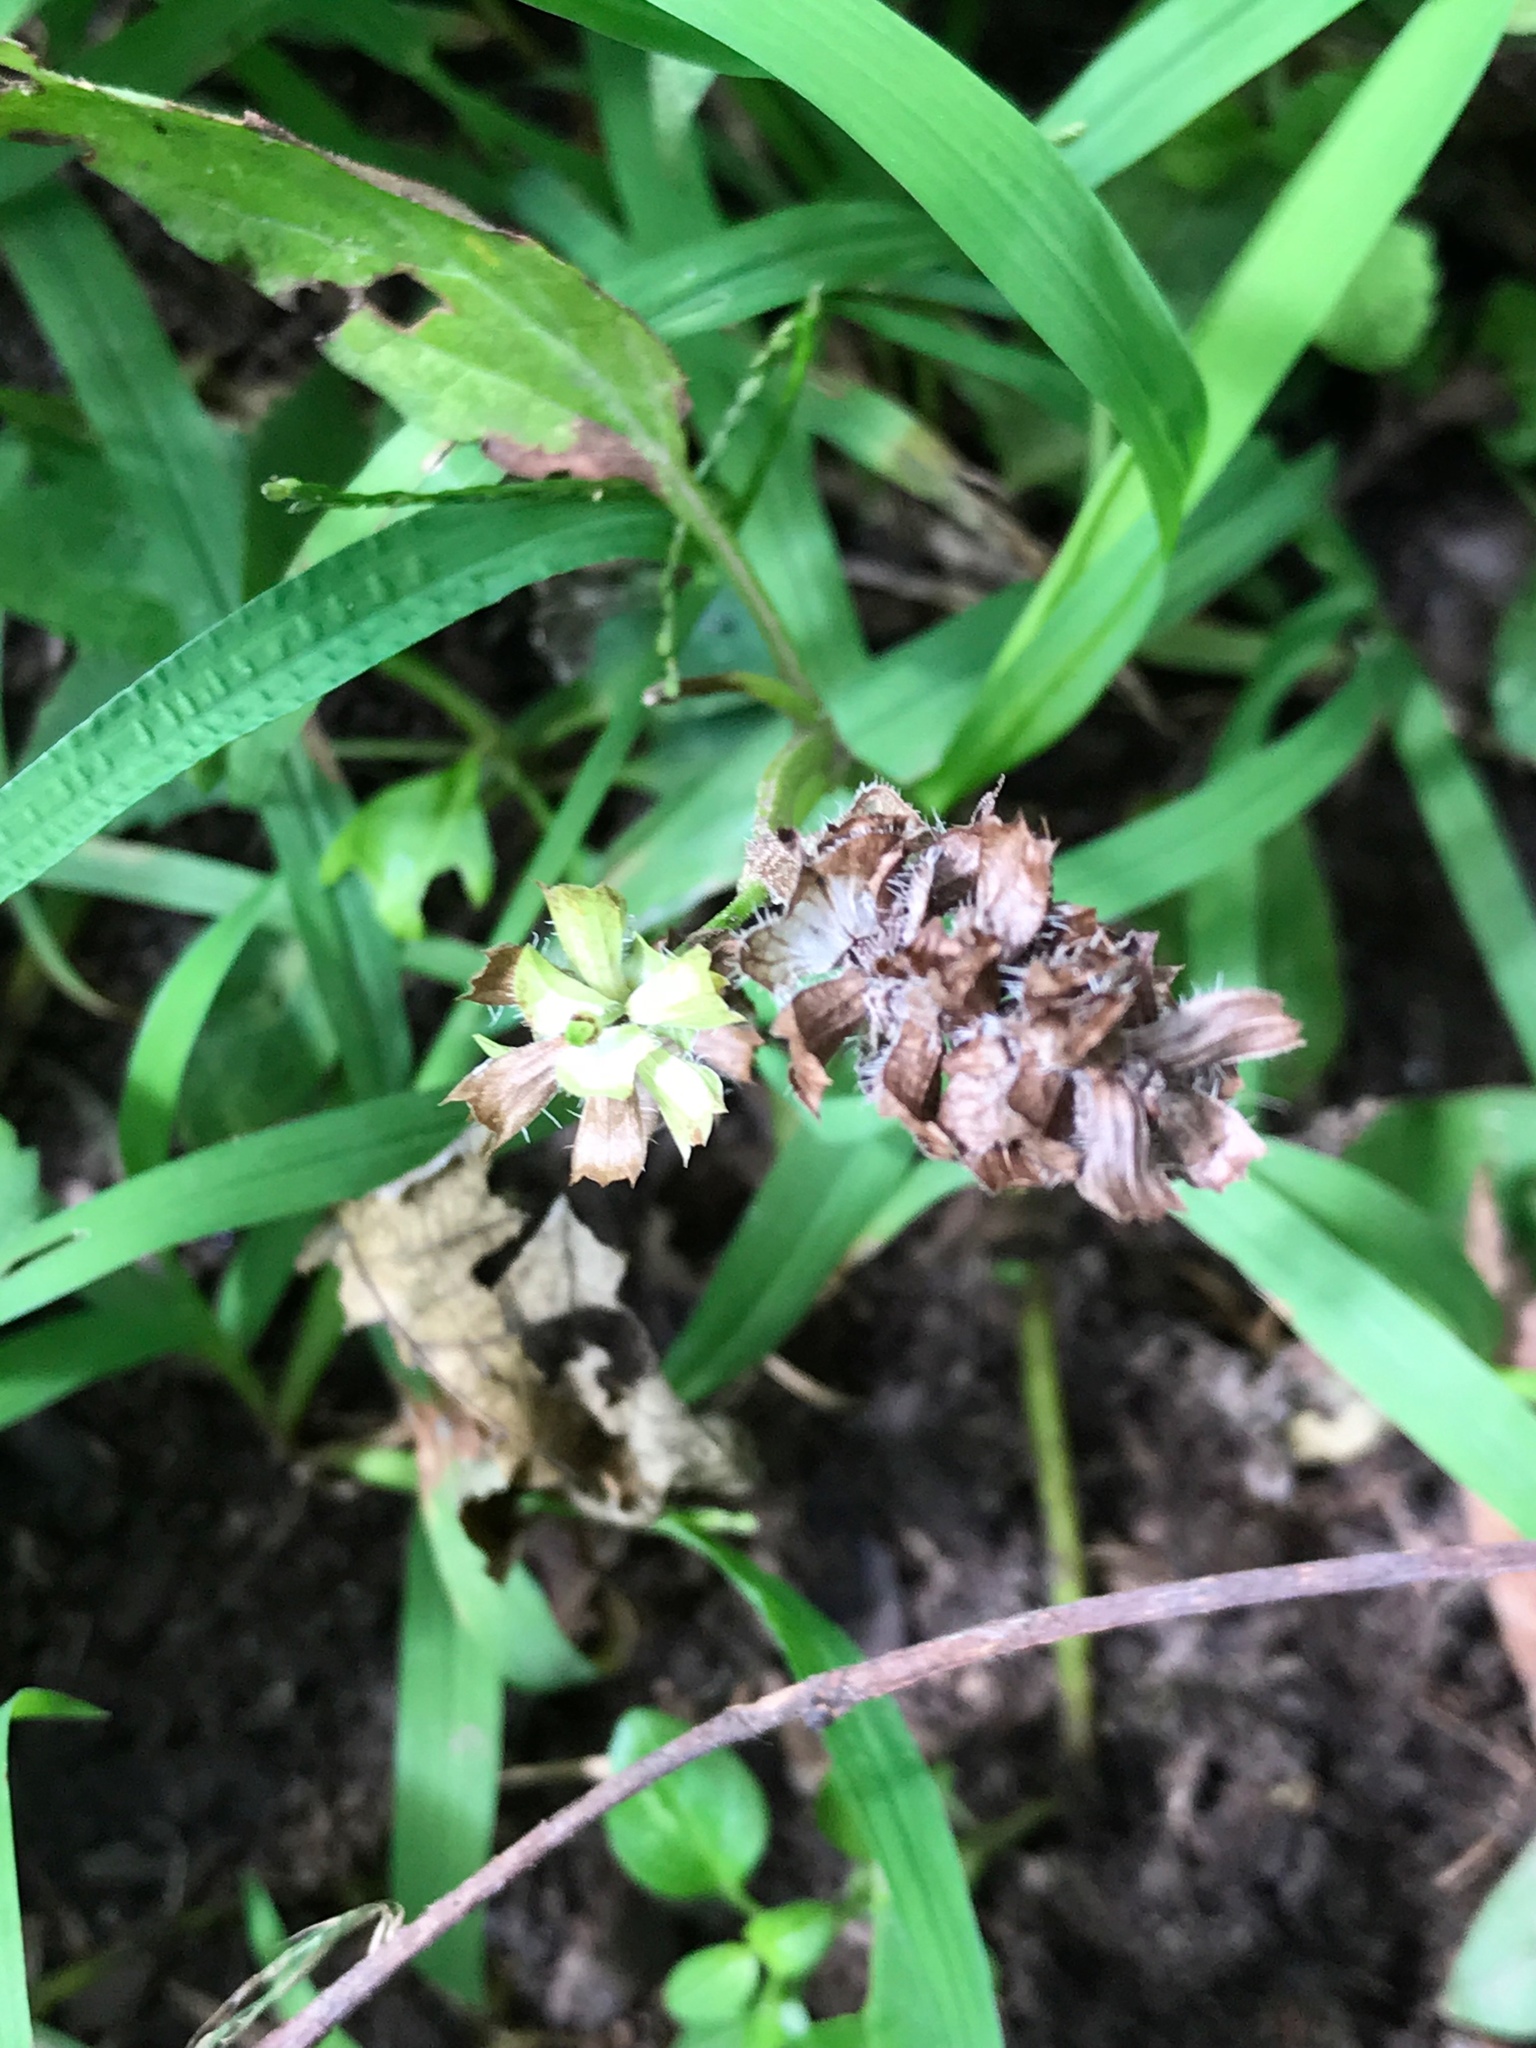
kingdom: Plantae
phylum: Tracheophyta
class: Magnoliopsida
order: Lamiales
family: Lamiaceae
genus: Prunella
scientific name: Prunella vulgaris
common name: Heal-all
